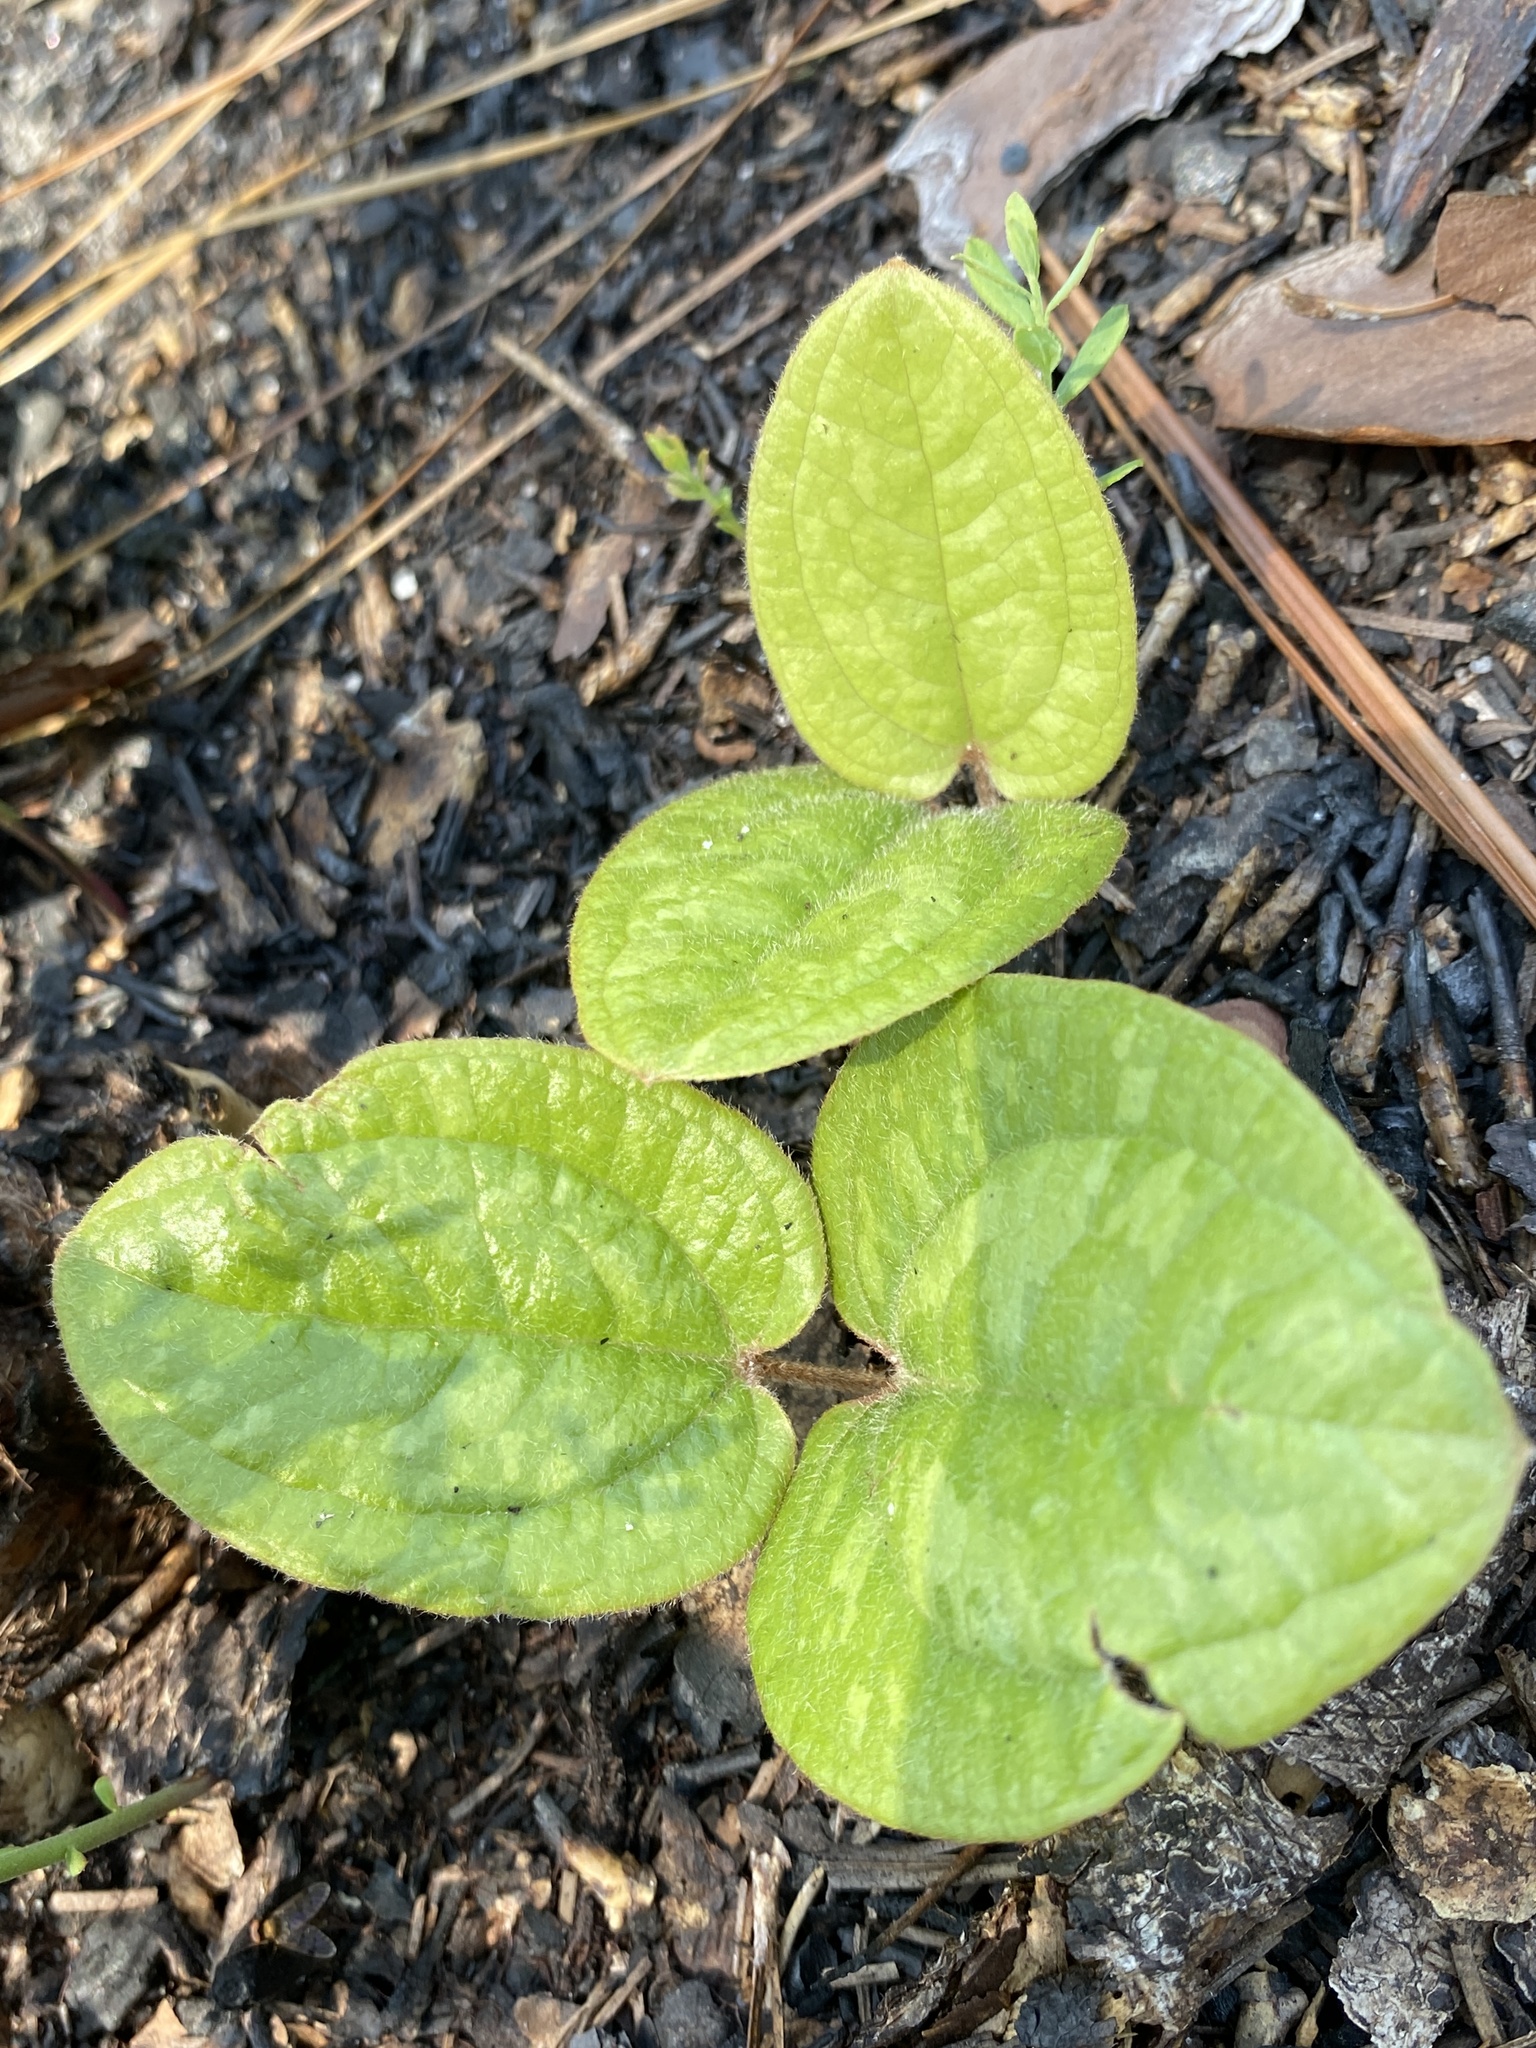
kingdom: Plantae
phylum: Tracheophyta
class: Liliopsida
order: Liliales
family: Smilacaceae
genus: Smilax
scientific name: Smilax pumila
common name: Sarsaparilla-vine
